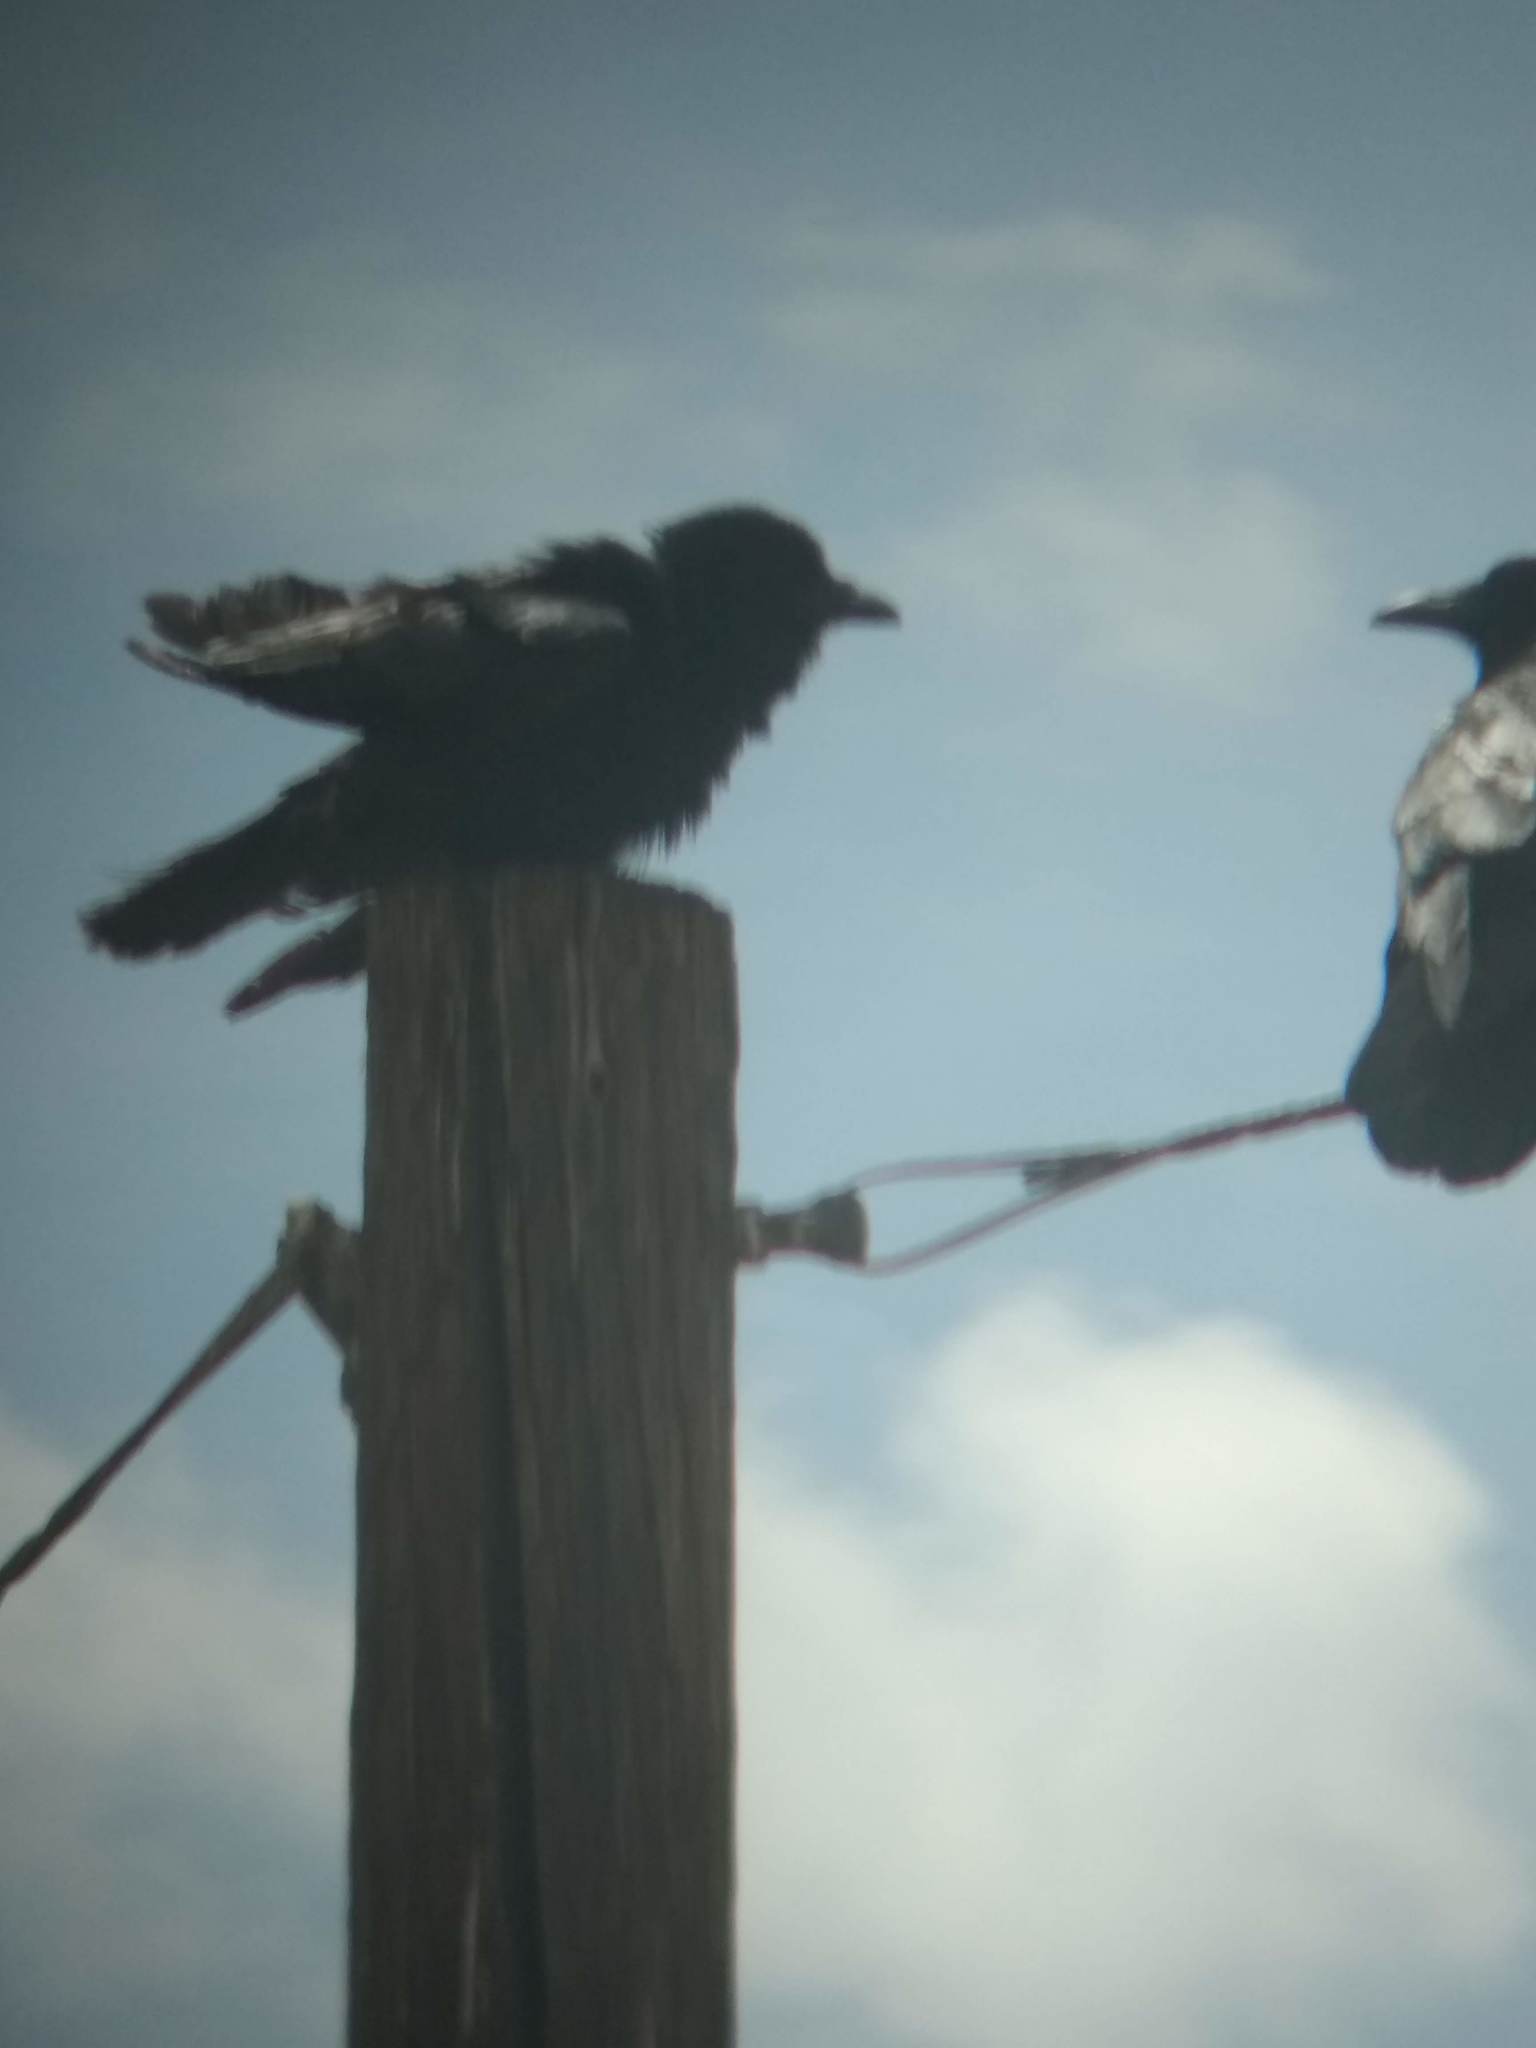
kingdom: Animalia
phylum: Chordata
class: Aves
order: Passeriformes
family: Corvidae
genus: Corvus
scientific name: Corvus corax
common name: Common raven
